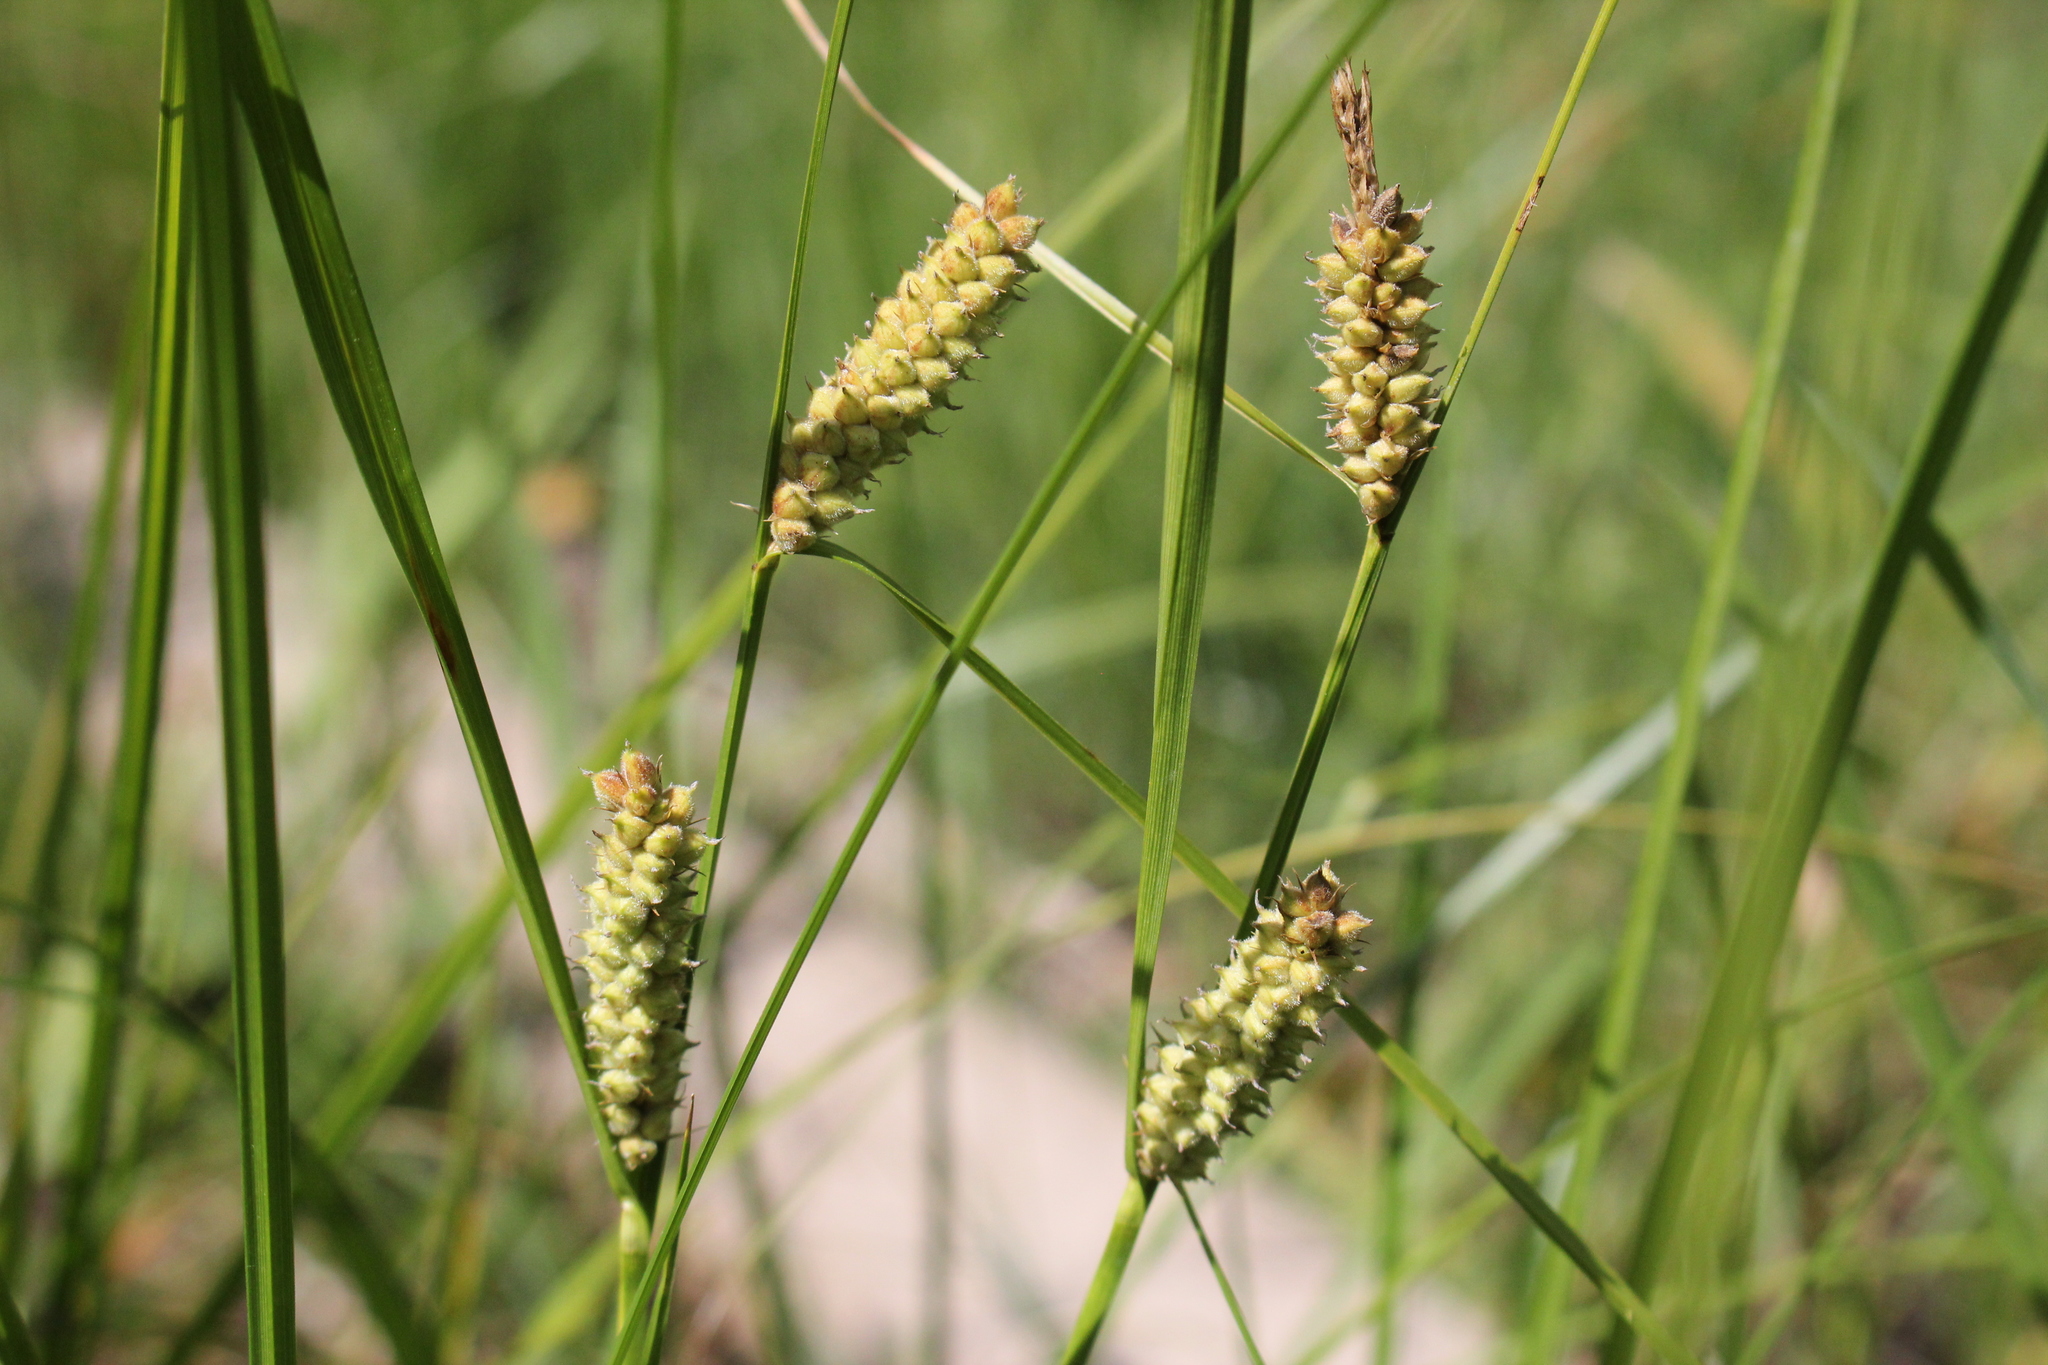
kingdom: Plantae
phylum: Tracheophyta
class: Liliopsida
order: Poales
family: Cyperaceae
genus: Carex
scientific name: Carex pellita
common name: Woolly sedge
